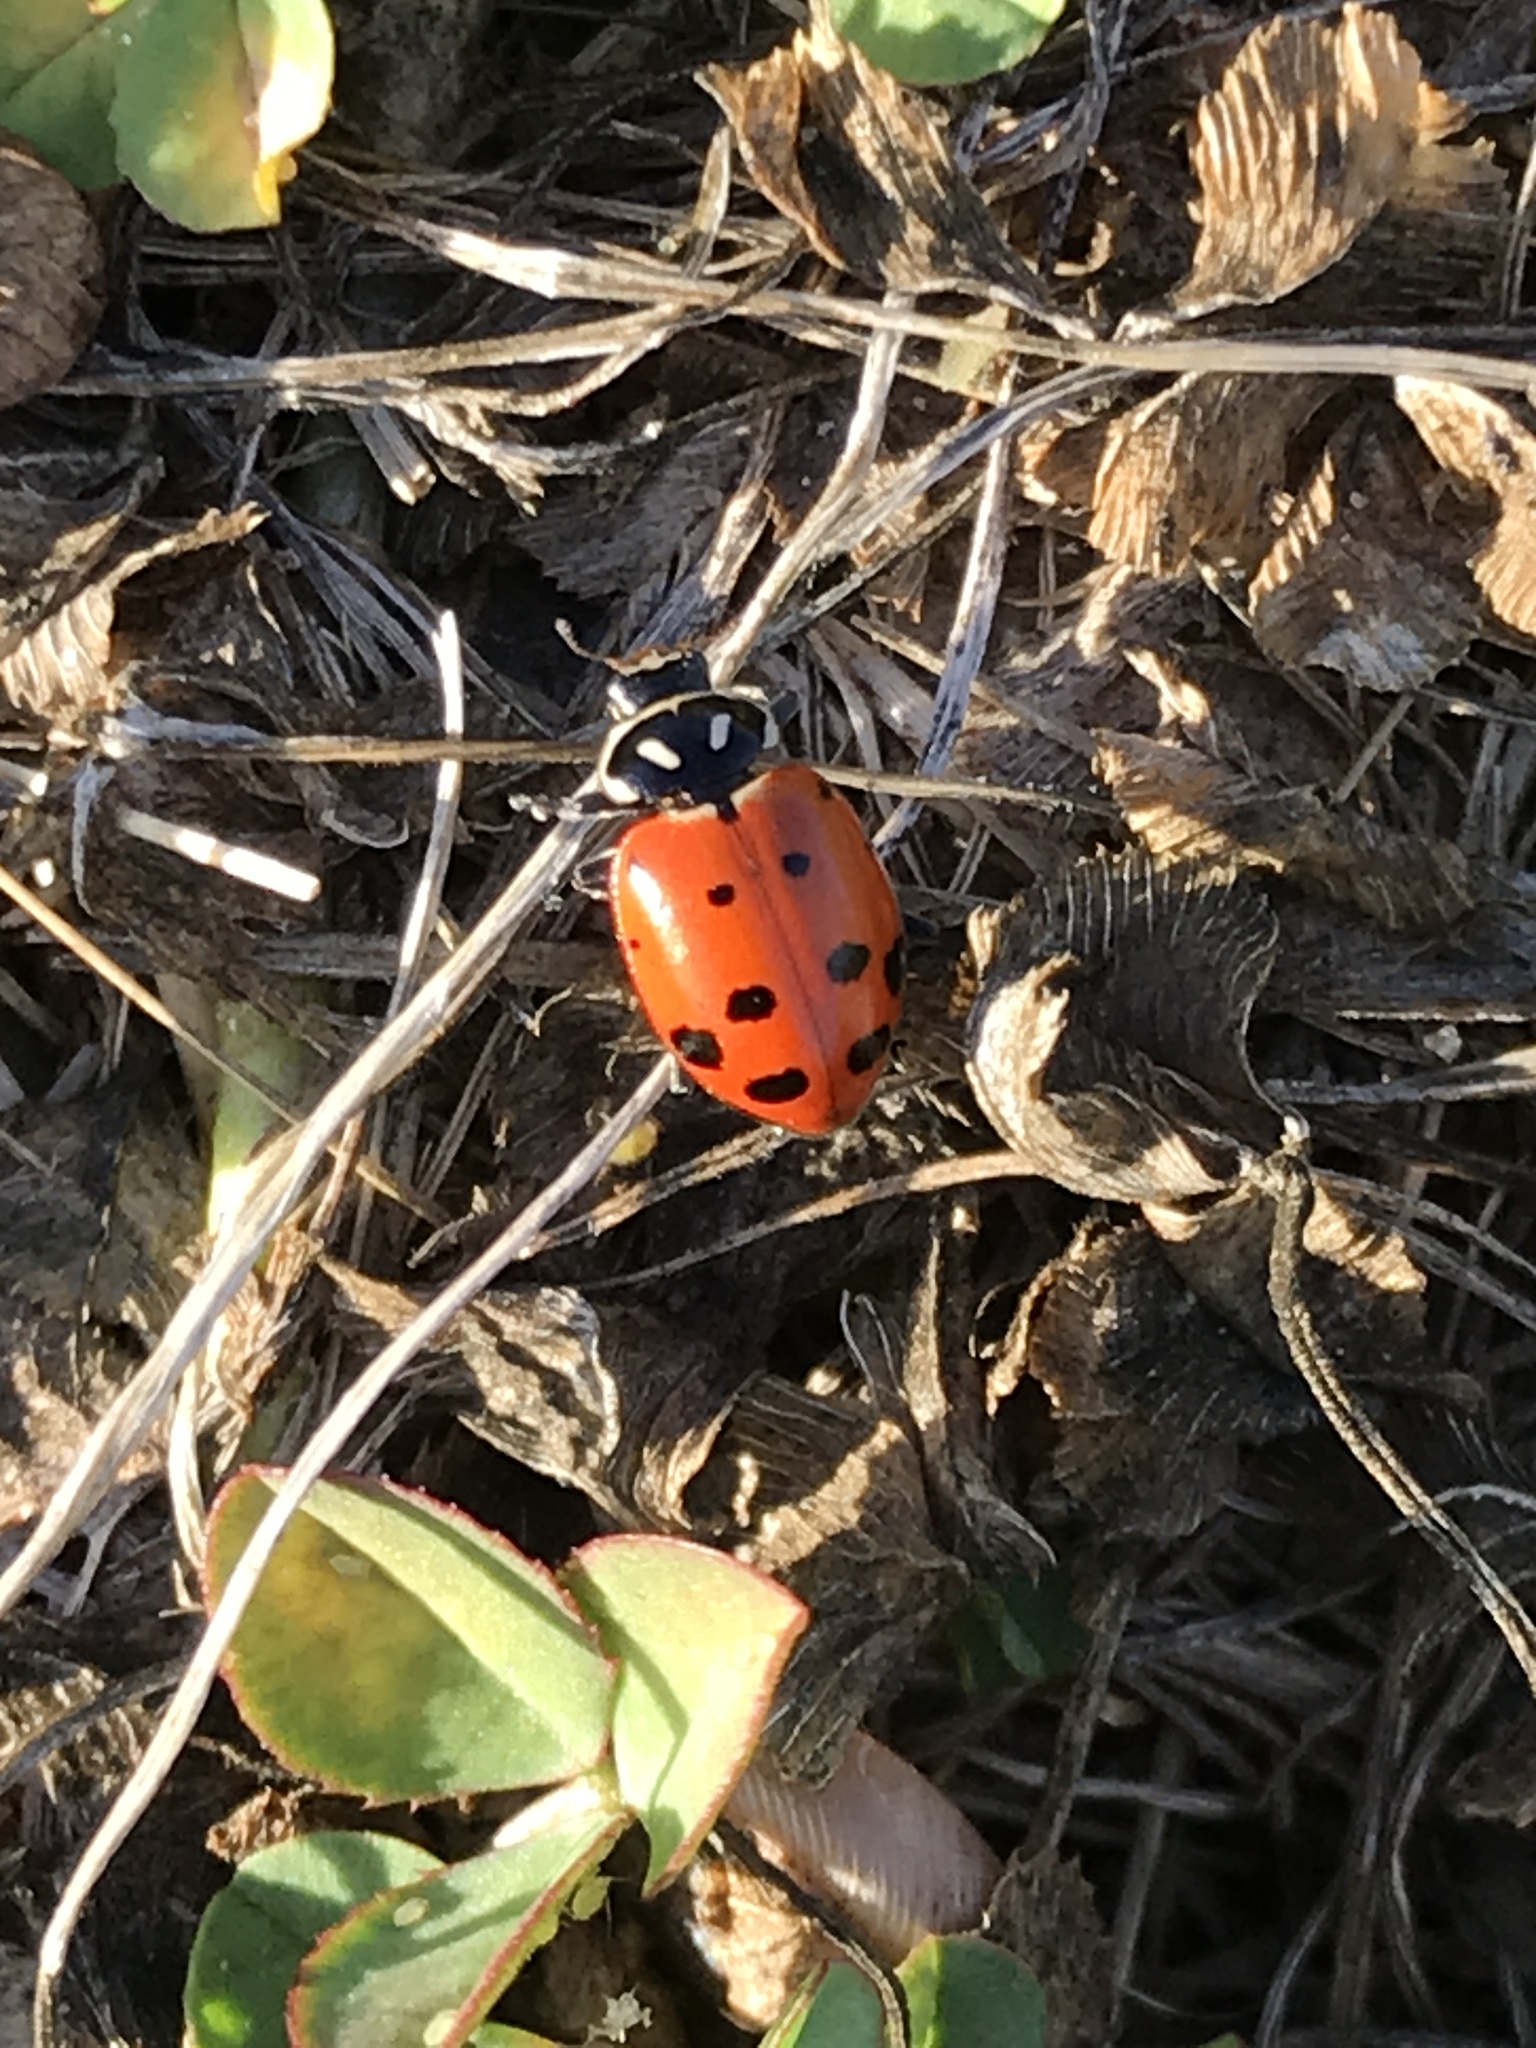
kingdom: Animalia
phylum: Arthropoda
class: Insecta
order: Coleoptera
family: Coccinellidae
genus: Hippodamia
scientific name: Hippodamia convergens
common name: Convergent lady beetle
